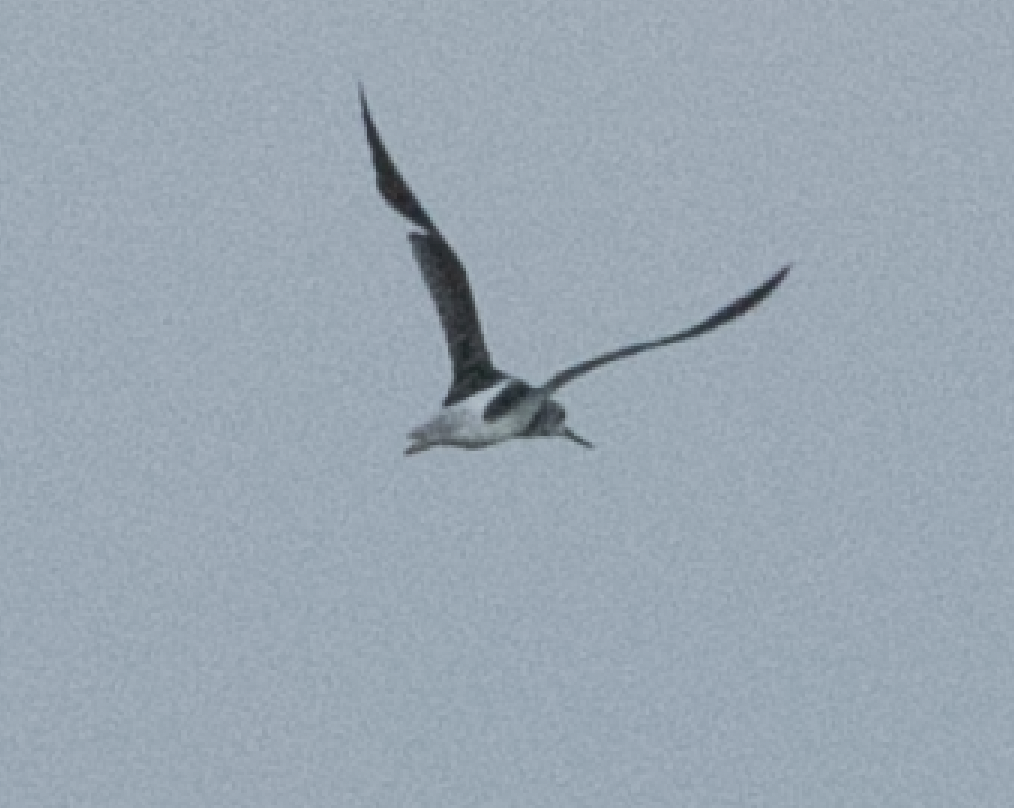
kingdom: Animalia
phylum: Chordata
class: Aves
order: Charadriiformes
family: Scolopacidae
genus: Tringa
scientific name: Tringa nebularia
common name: Common greenshank
